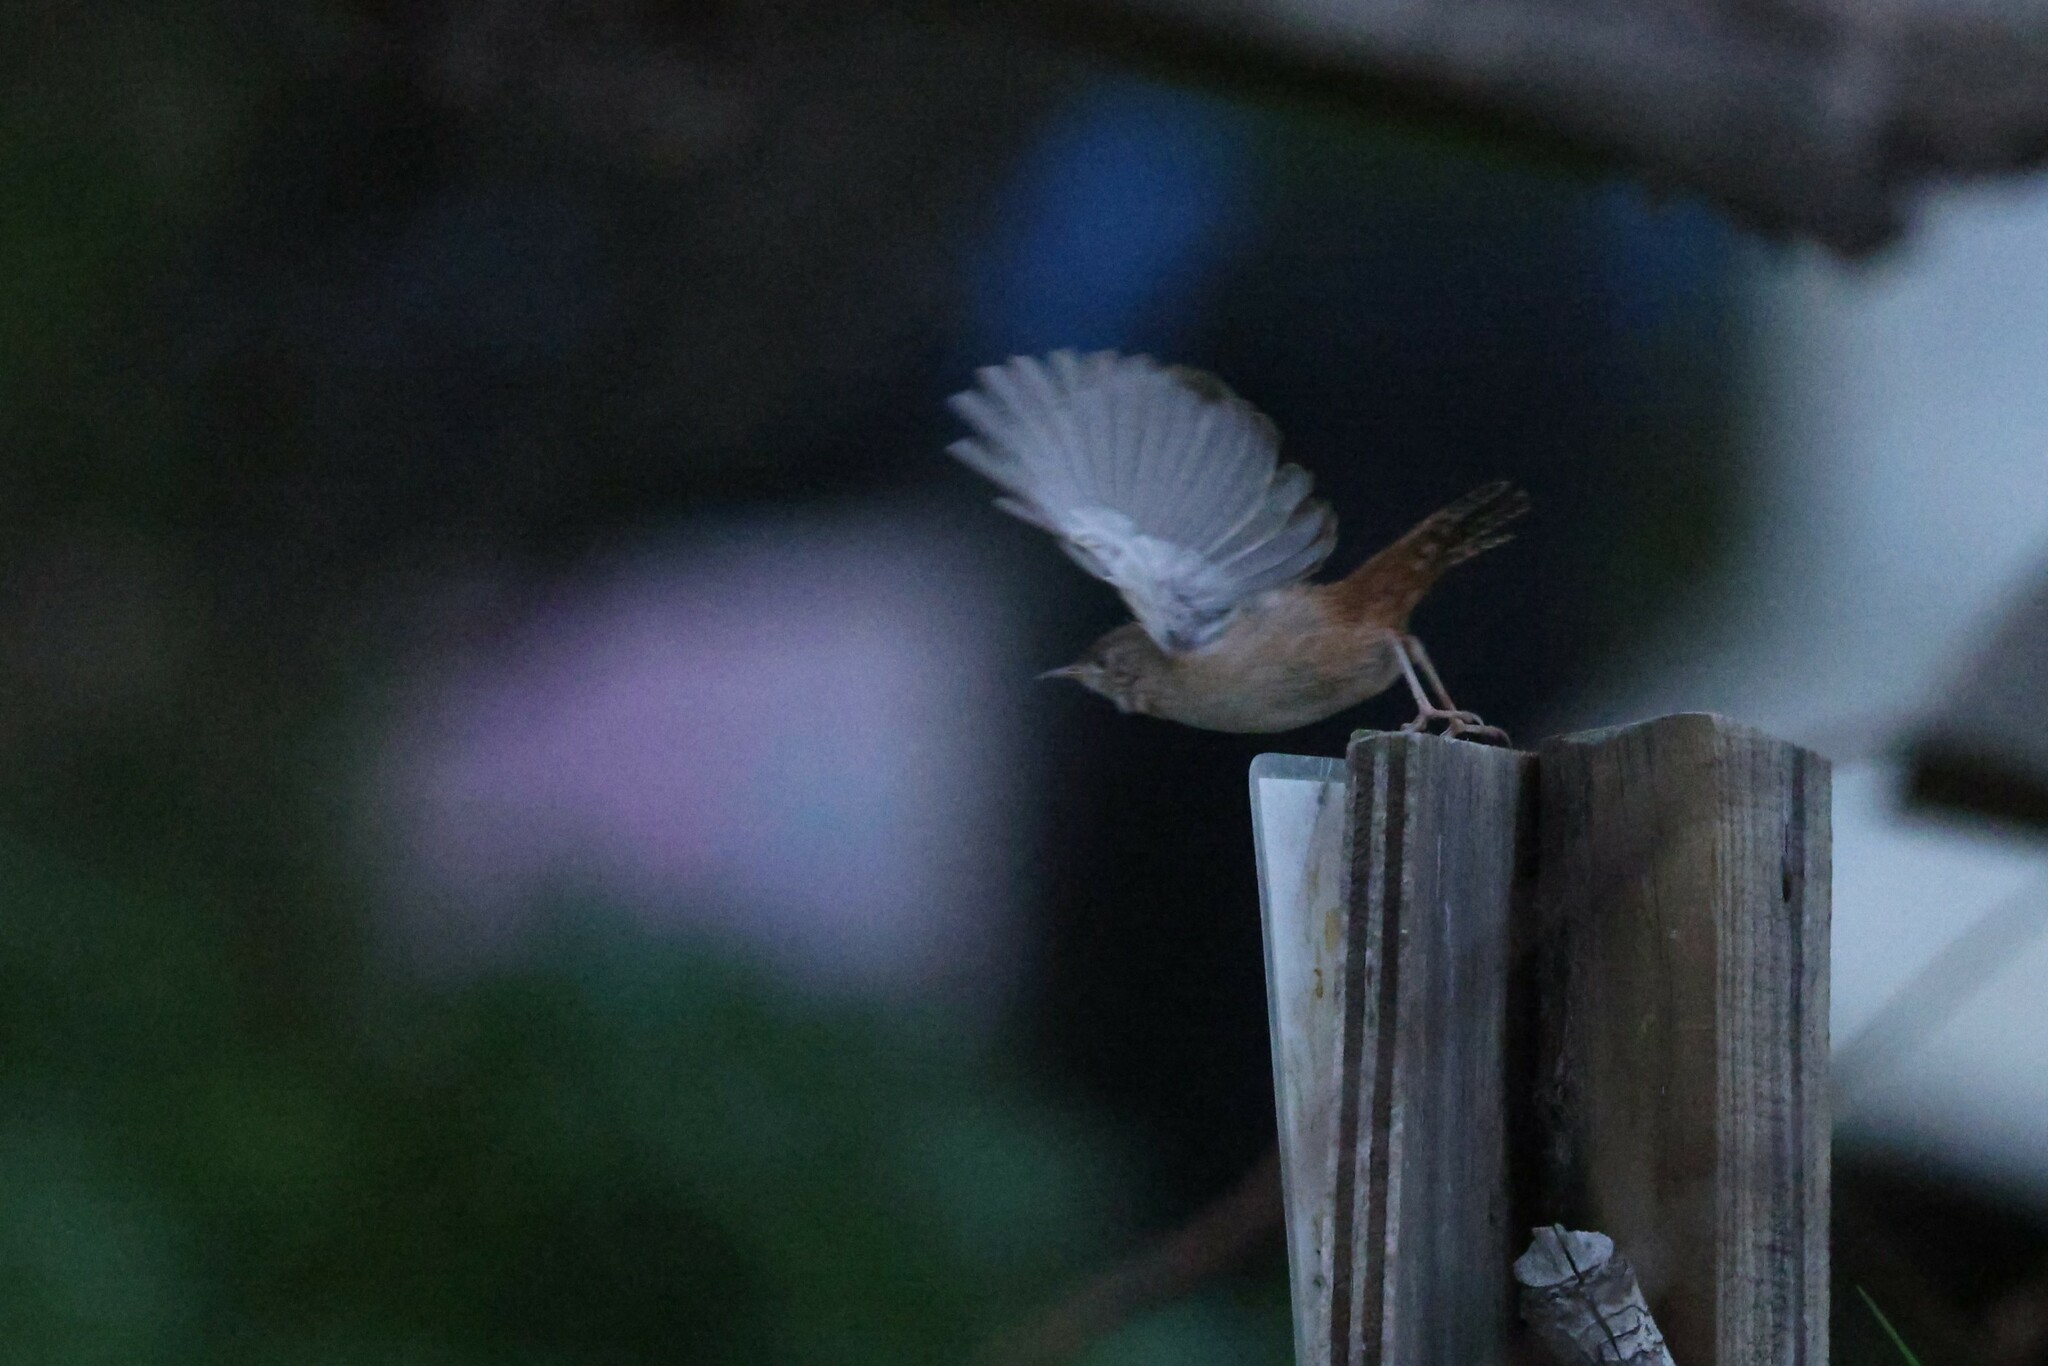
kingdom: Animalia
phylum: Chordata
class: Aves
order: Passeriformes
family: Troglodytidae
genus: Troglodytes
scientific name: Troglodytes aedon
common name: House wren
